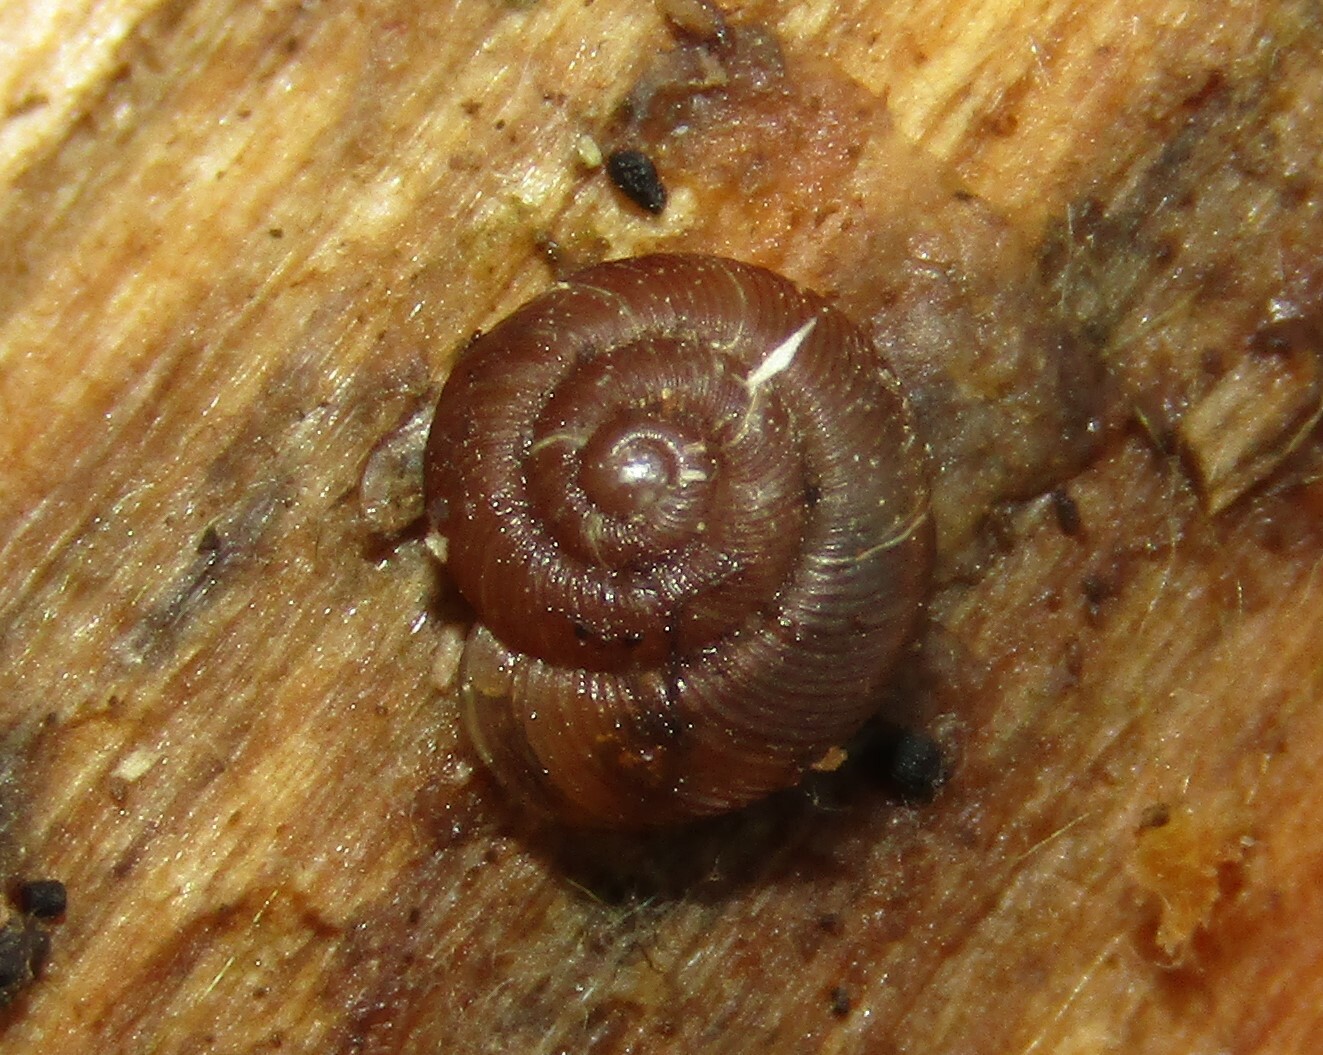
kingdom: Animalia
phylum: Mollusca
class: Gastropoda
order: Stylommatophora
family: Discidae
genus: Discus
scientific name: Discus ruderatus
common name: Brown disc snail
